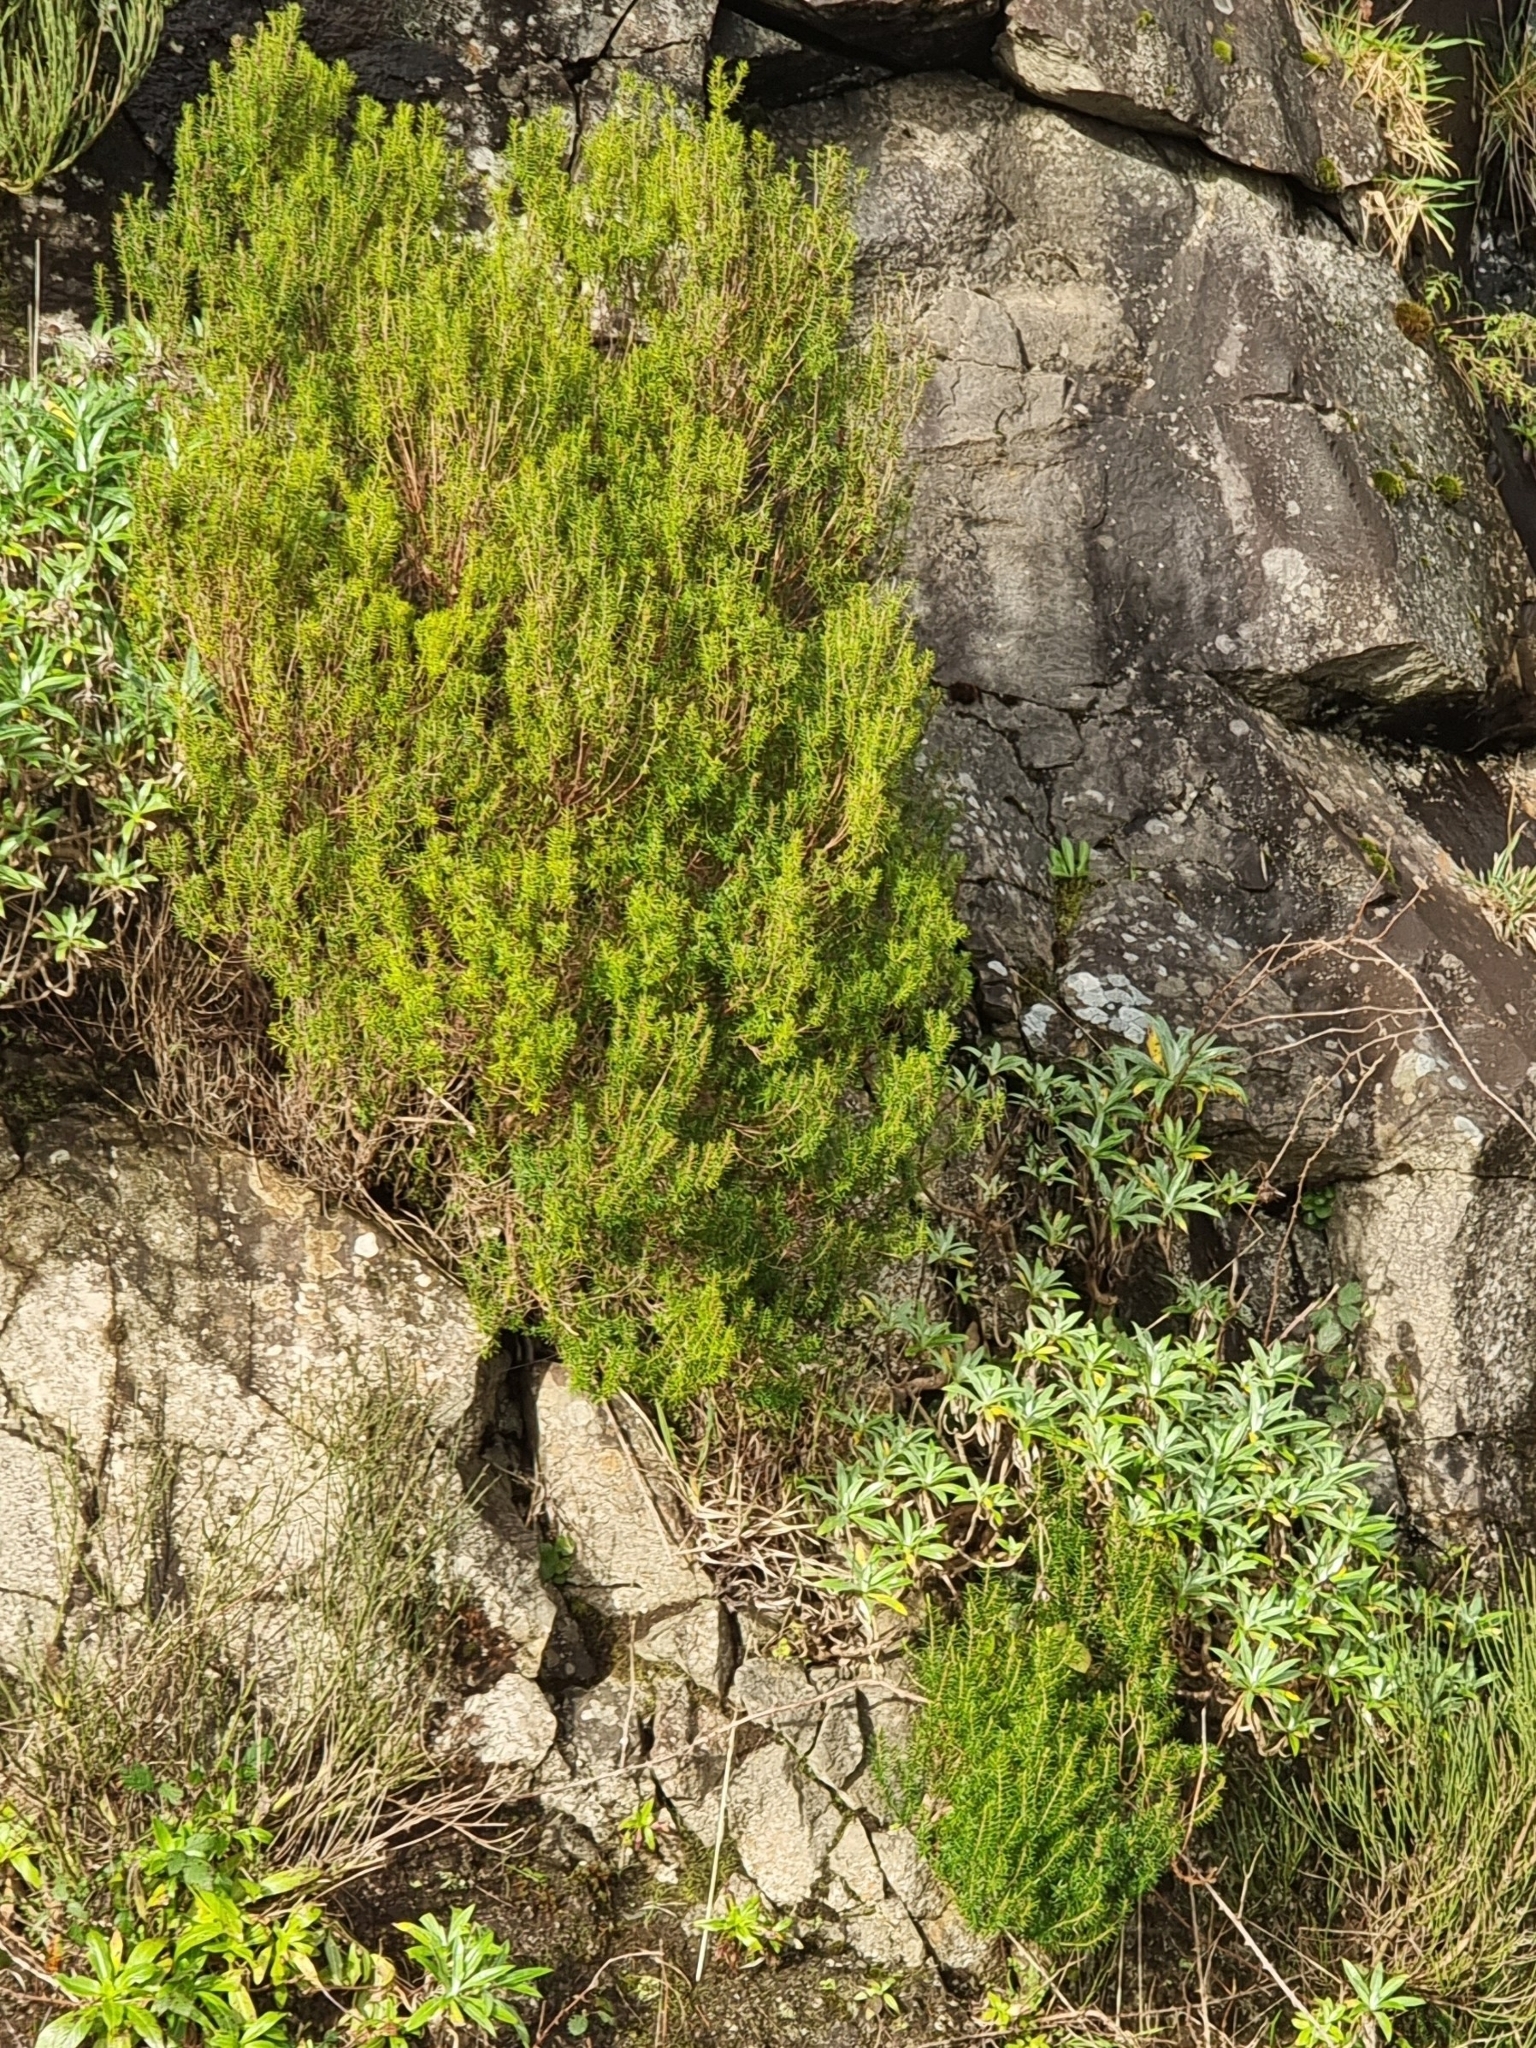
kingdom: Plantae
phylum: Tracheophyta
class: Magnoliopsida
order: Ericales
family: Ericaceae
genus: Erica
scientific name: Erica platycodon
